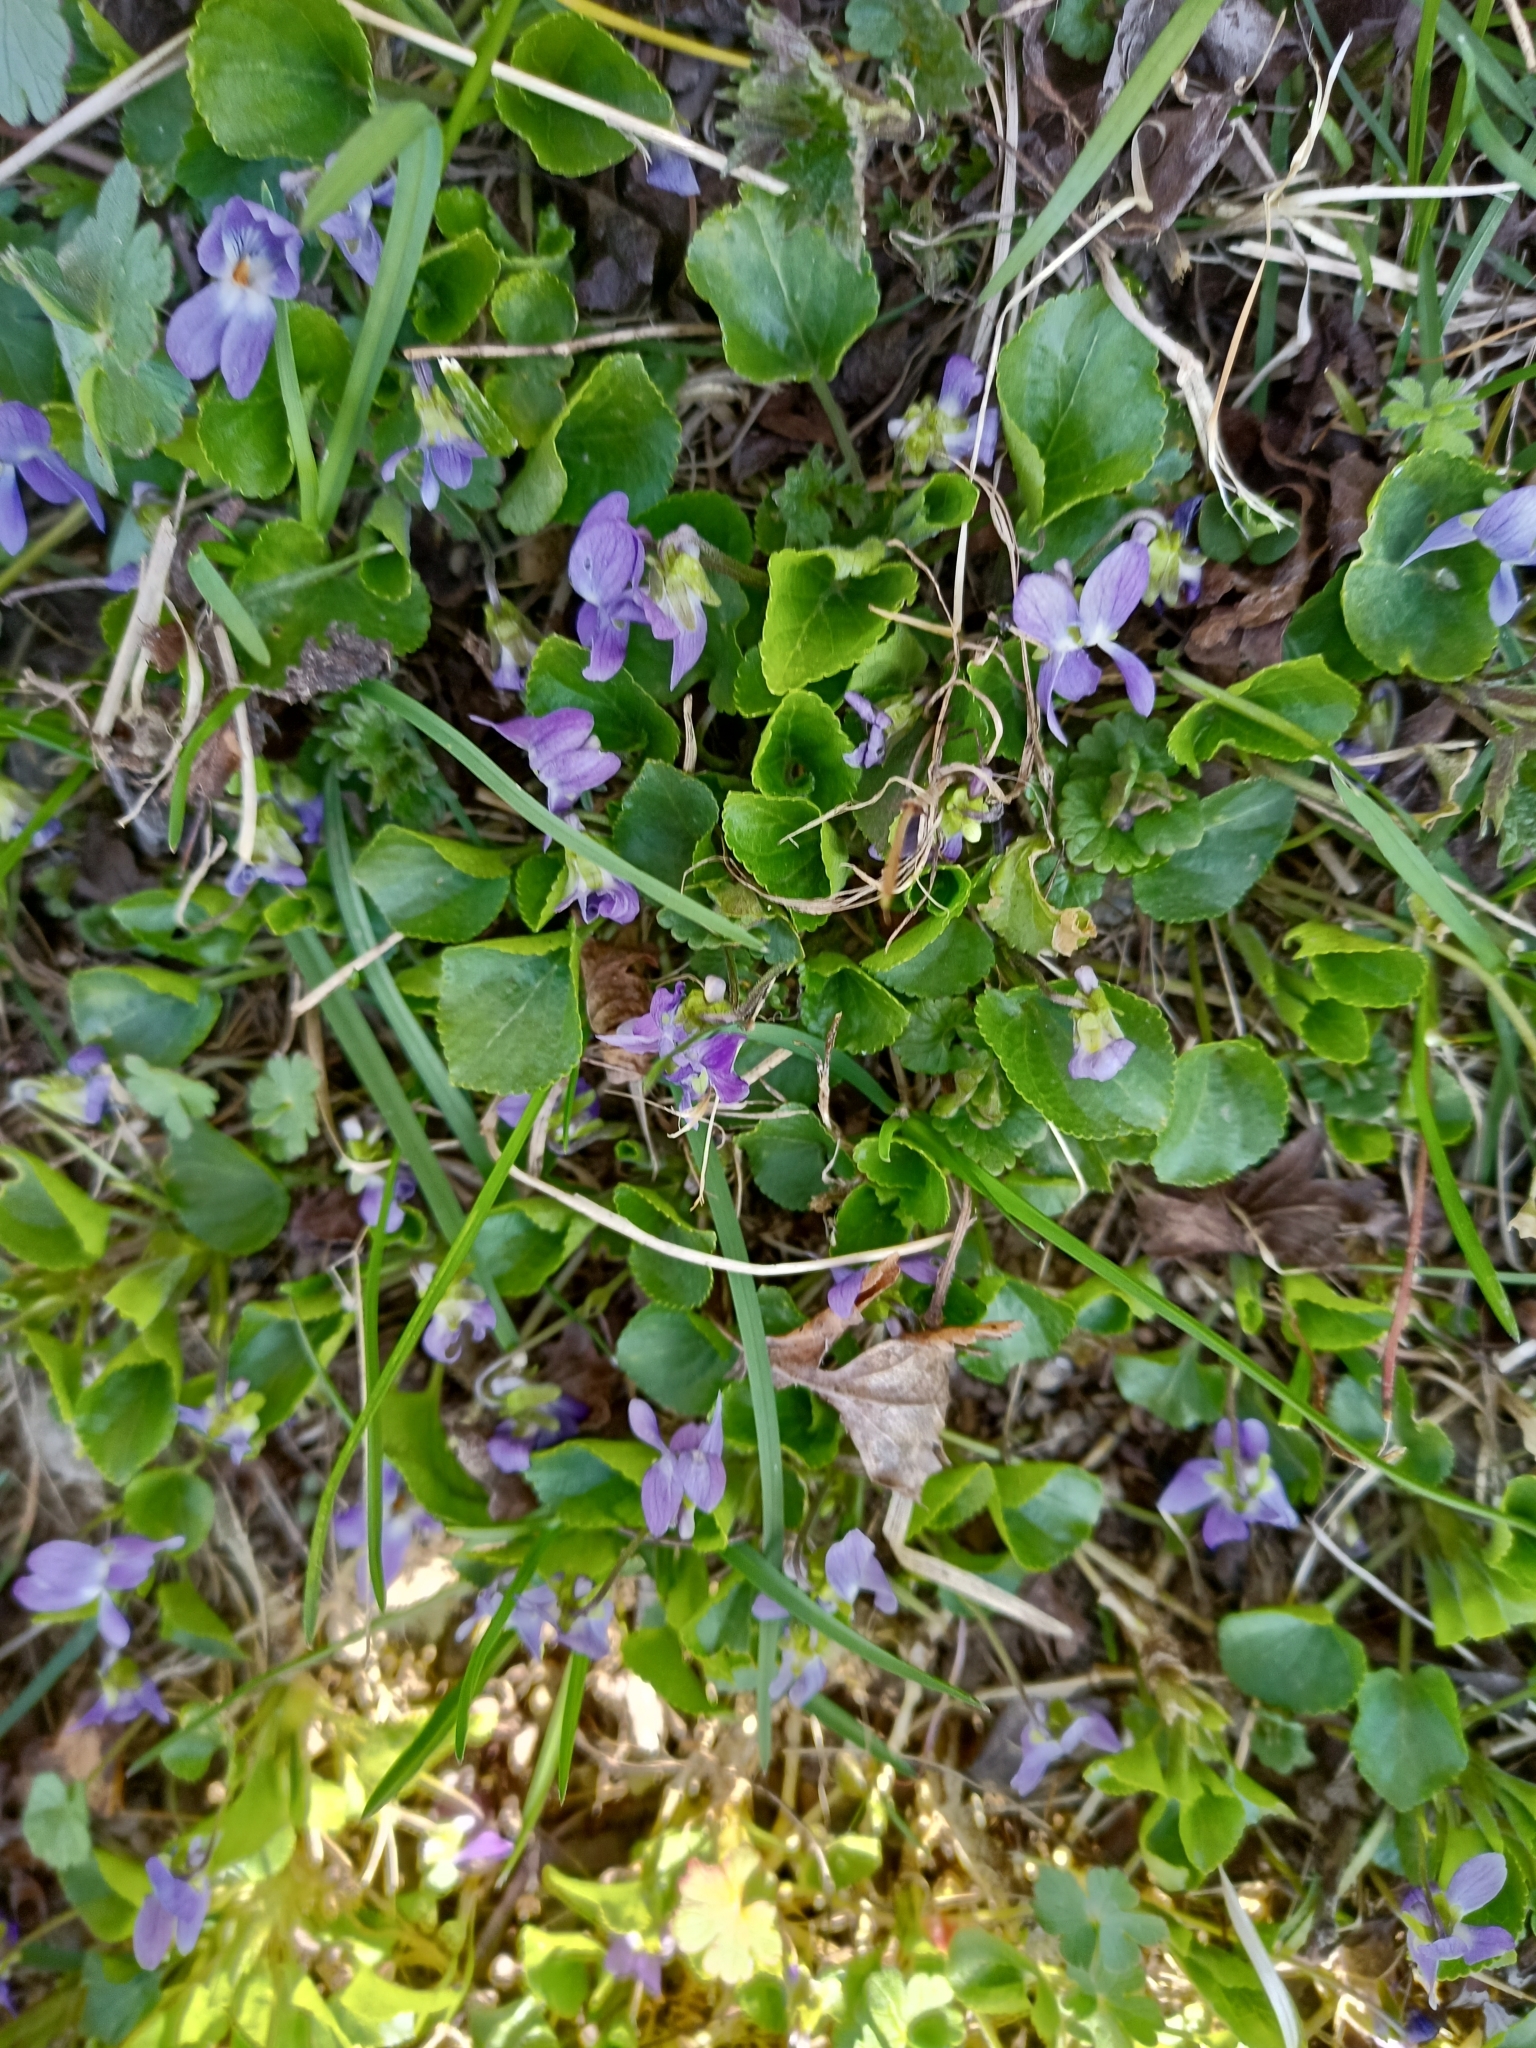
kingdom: Plantae
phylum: Tracheophyta
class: Magnoliopsida
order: Malpighiales
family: Violaceae
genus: Viola
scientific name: Viola odorata
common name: Sweet violet
